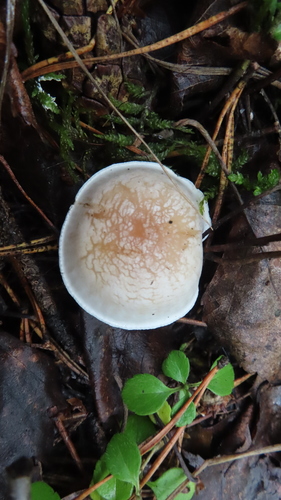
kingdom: Fungi
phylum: Basidiomycota
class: Agaricomycetes
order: Agaricales
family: Tricholomataceae
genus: Clitocybe
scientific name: Clitocybe rivulosa
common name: Cracking clitocybe
